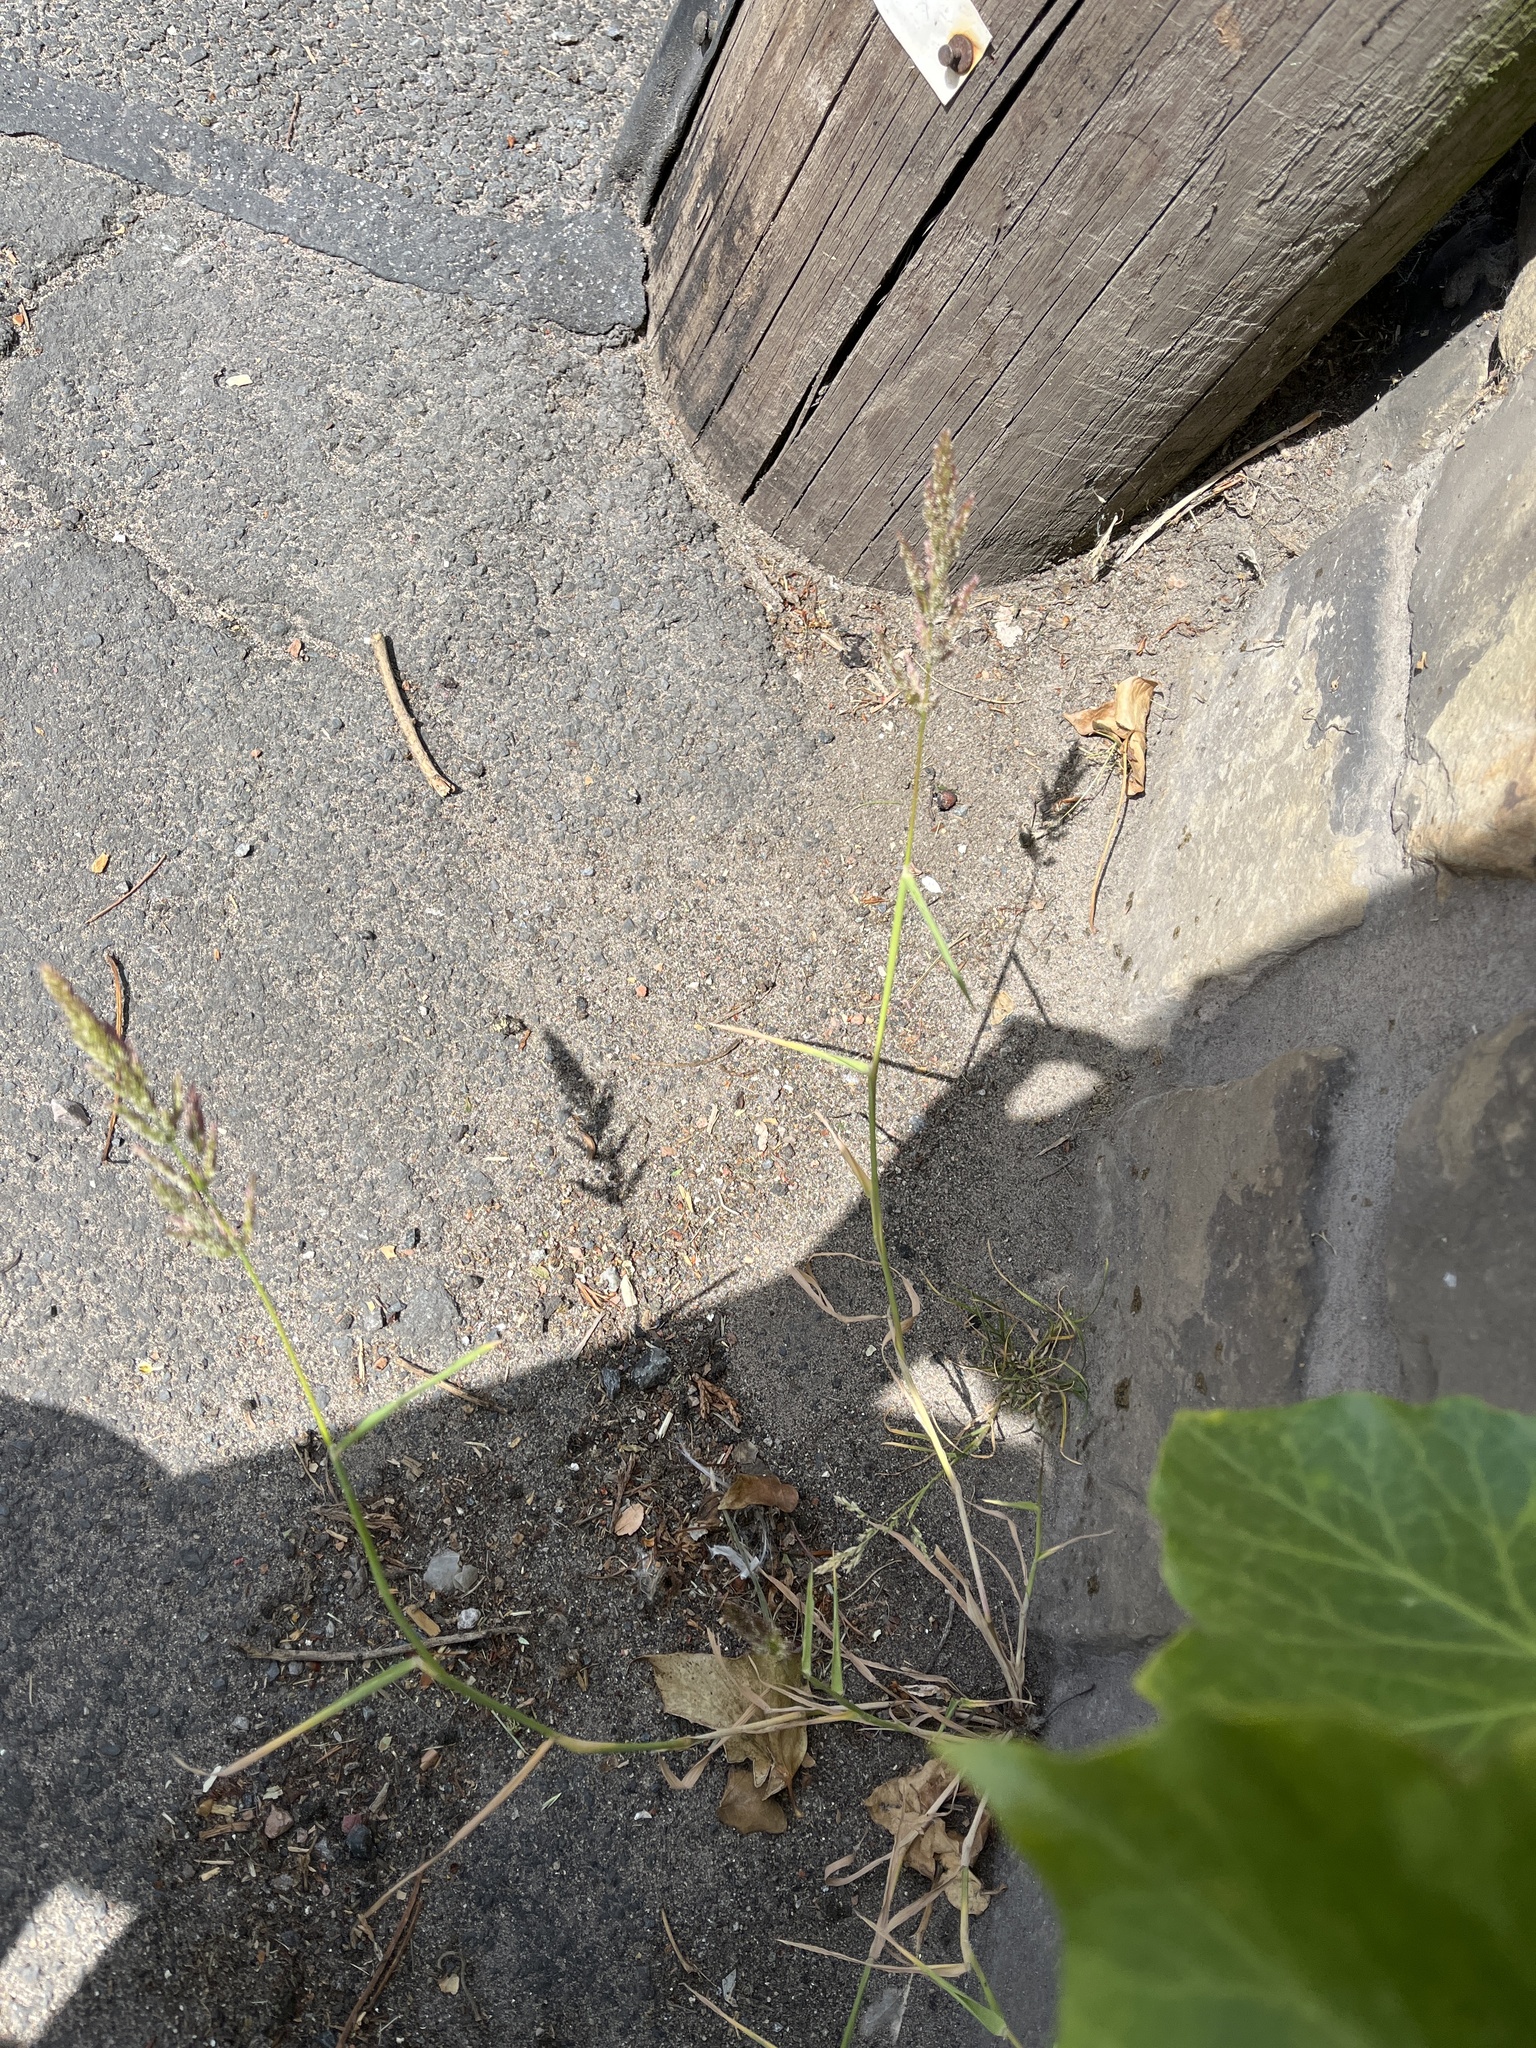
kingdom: Plantae
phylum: Tracheophyta
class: Liliopsida
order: Poales
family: Poaceae
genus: Polypogon
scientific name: Polypogon viridis
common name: Water bent
